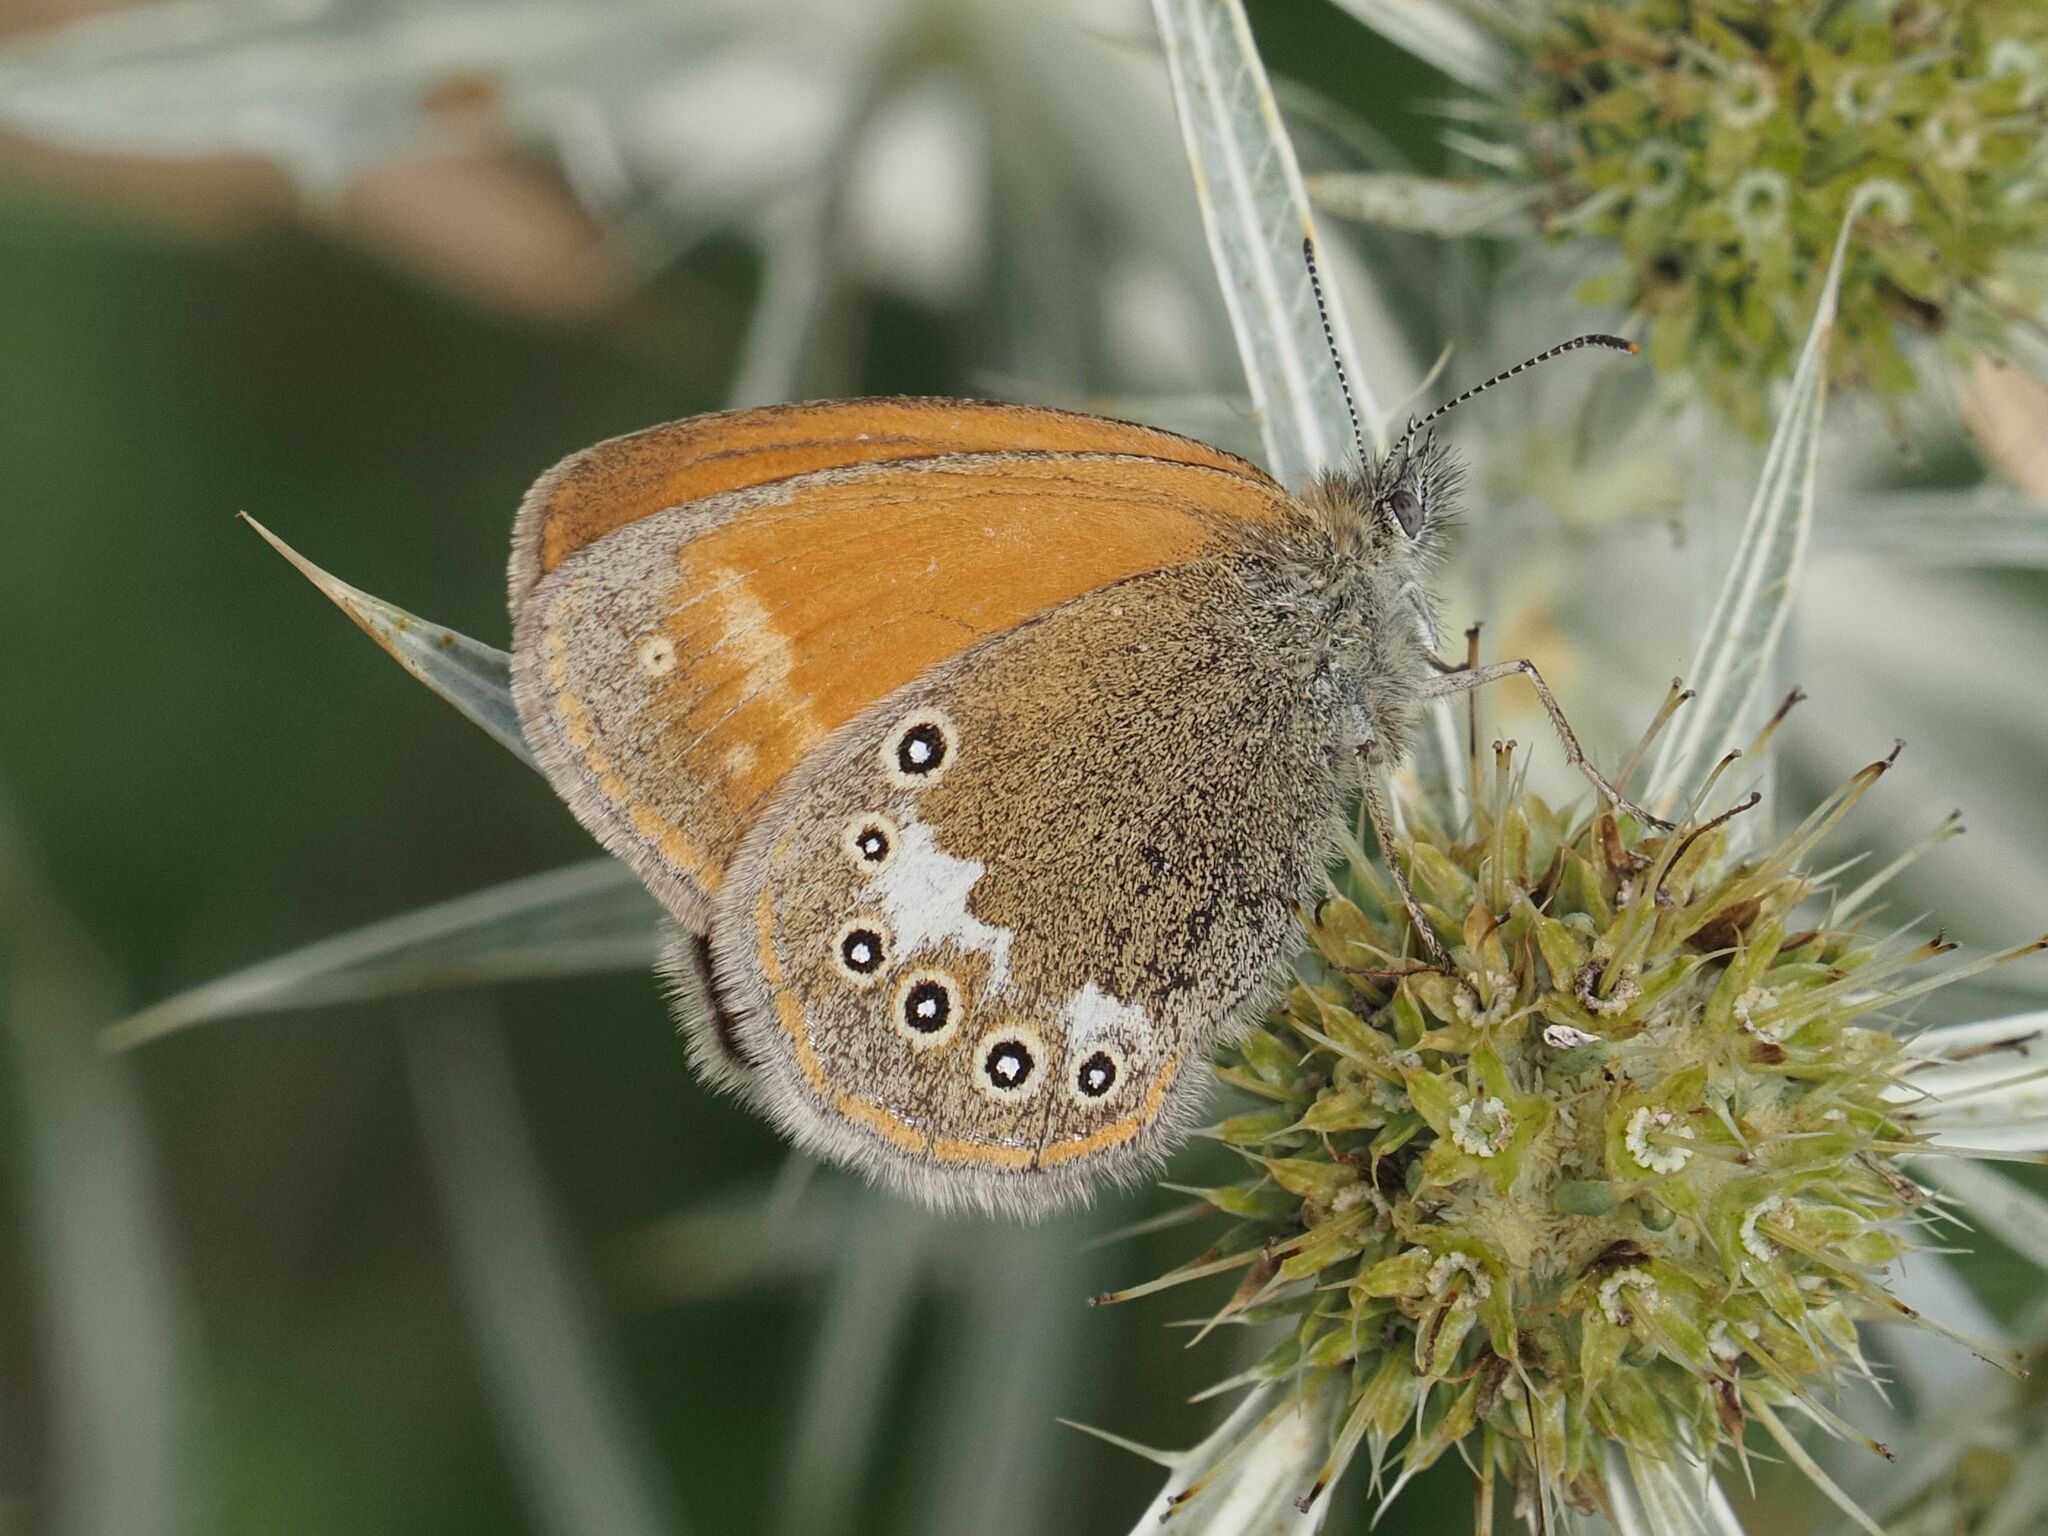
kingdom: Animalia
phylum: Arthropoda
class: Insecta
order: Lepidoptera
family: Nymphalidae
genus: Coenonympha
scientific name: Coenonympha iphis
